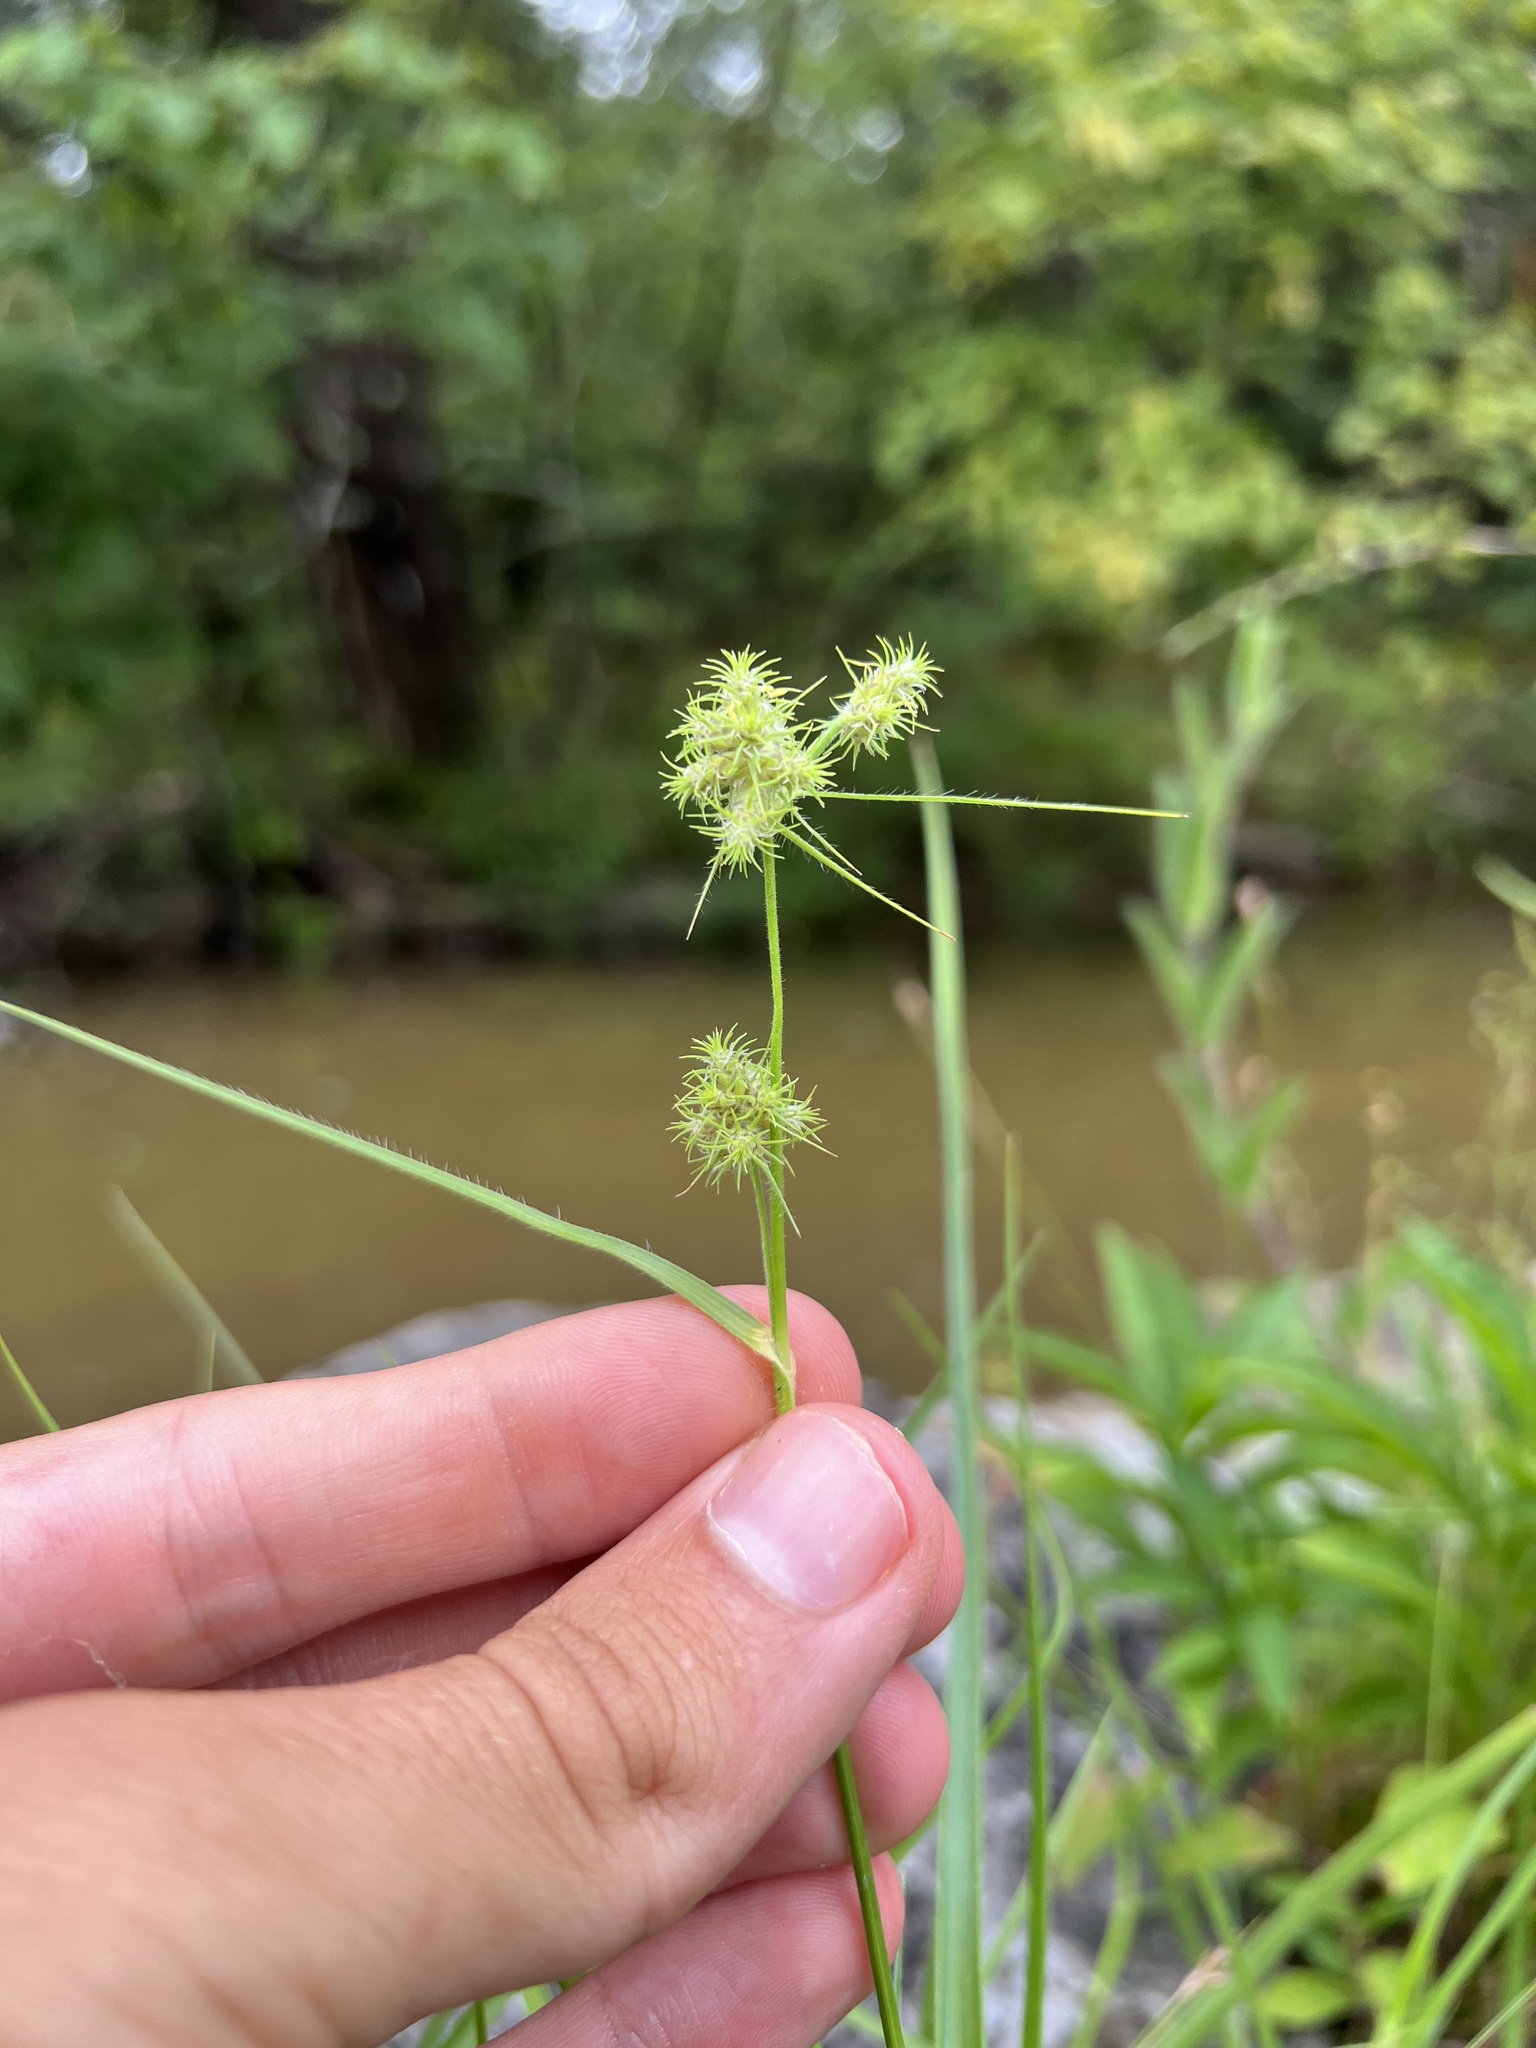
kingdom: Plantae
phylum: Tracheophyta
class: Liliopsida
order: Poales
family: Cyperaceae
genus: Fuirena
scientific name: Fuirena simplex
